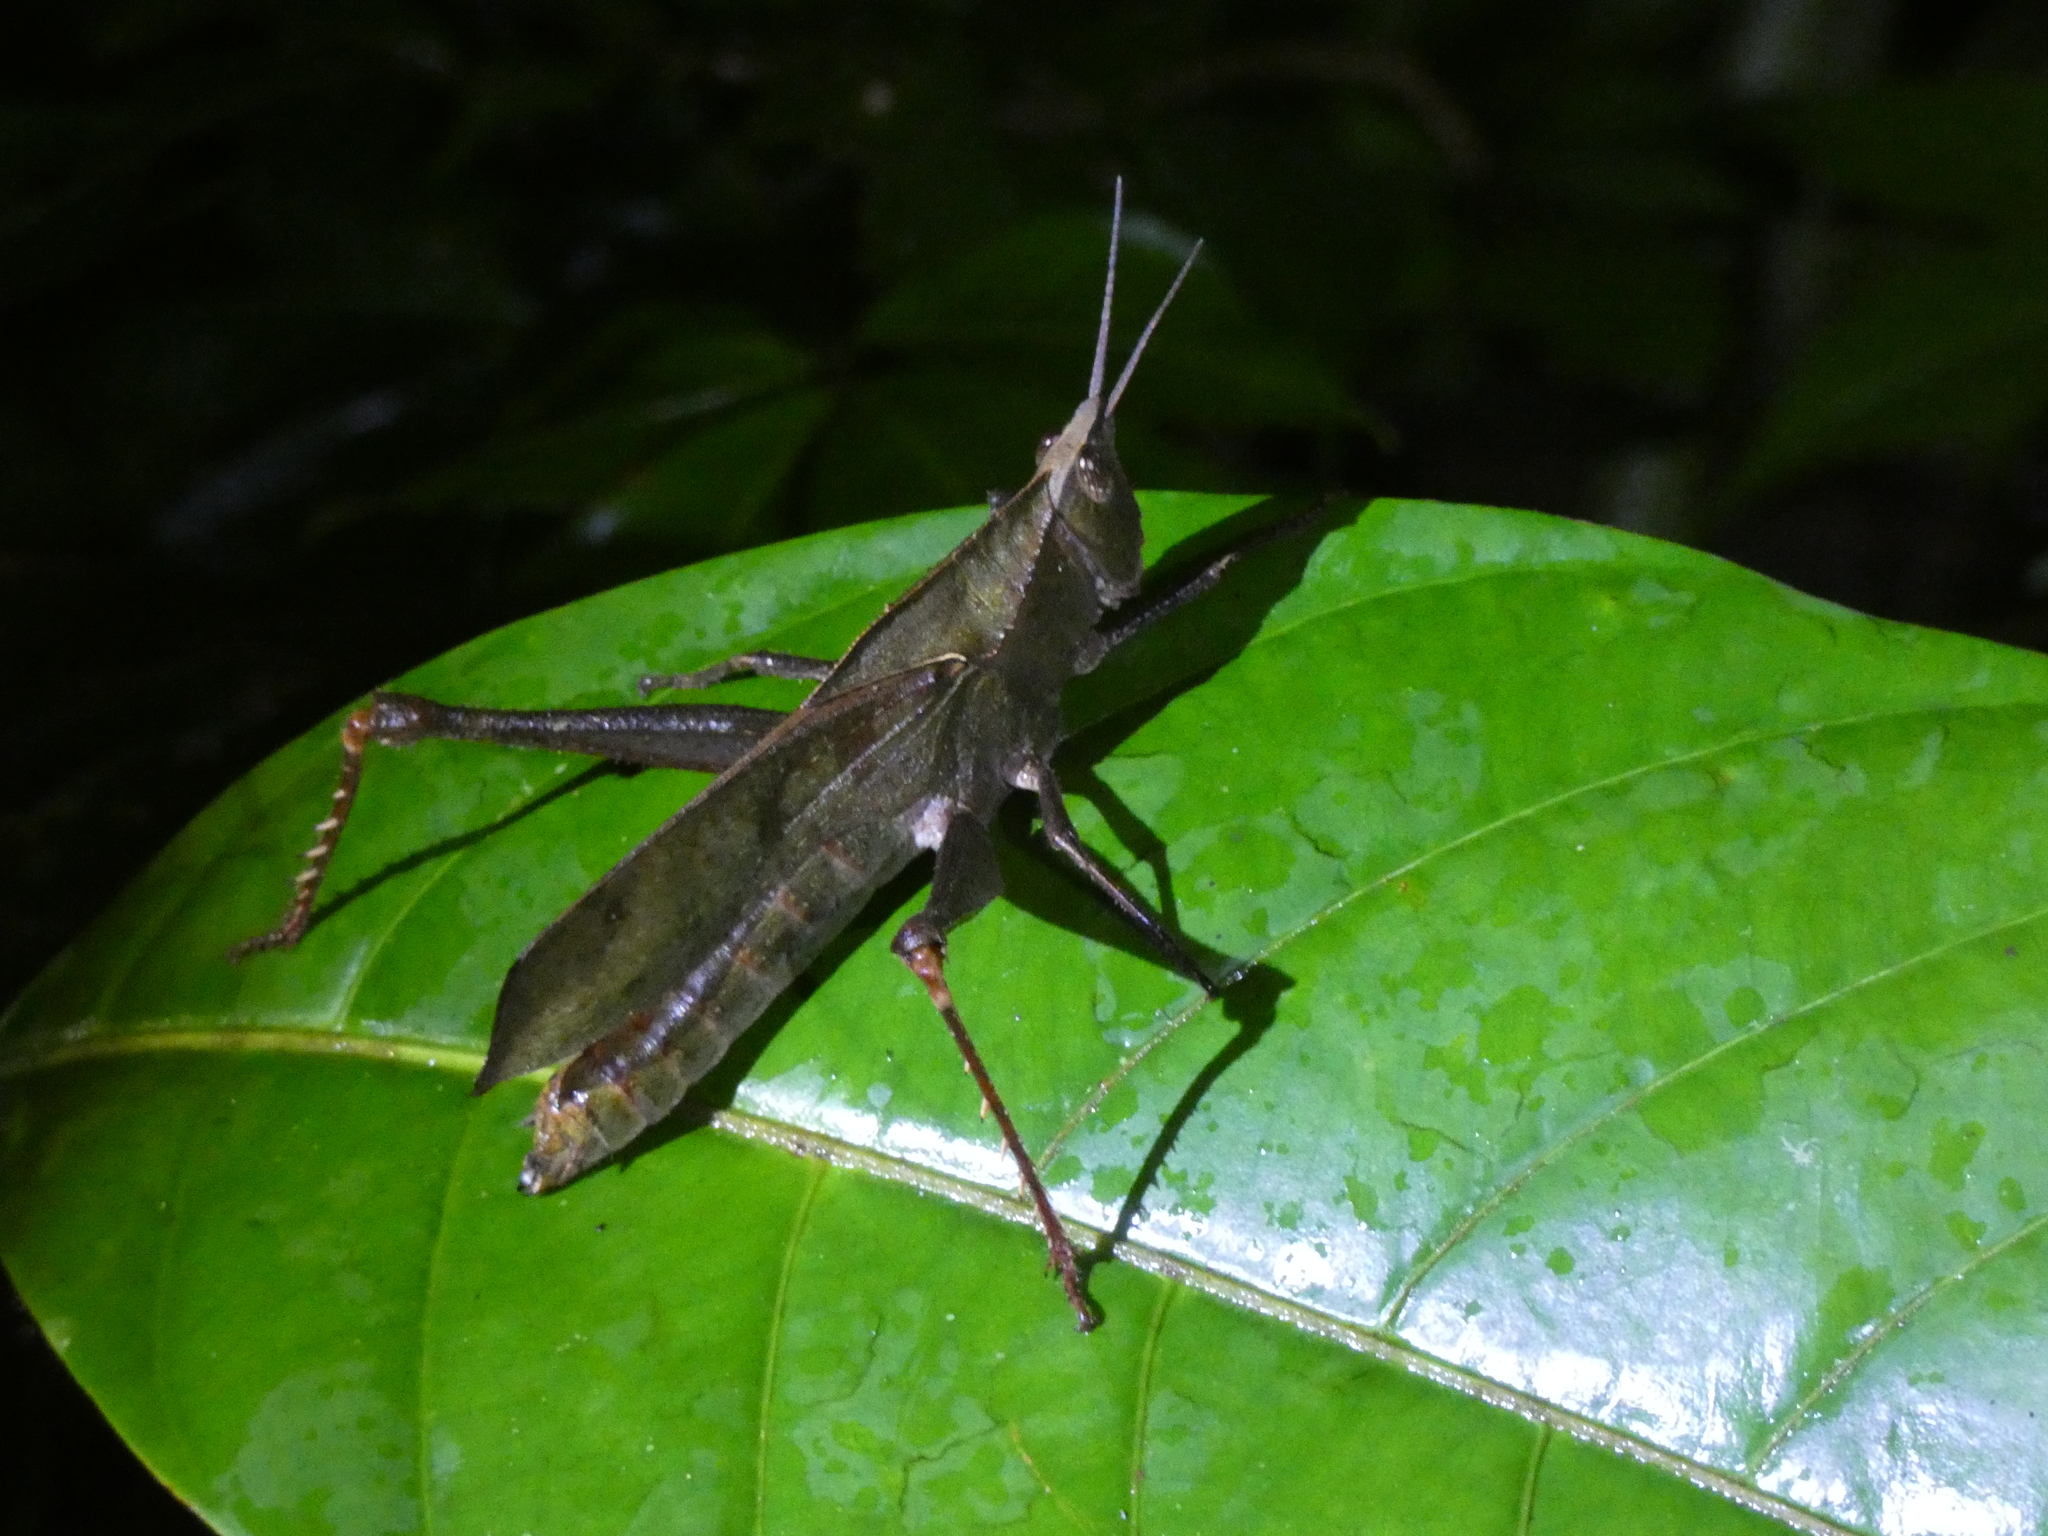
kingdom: Animalia
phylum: Arthropoda
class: Insecta
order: Orthoptera
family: Romaleidae
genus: Colpolopha
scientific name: Colpolopha latipennis
